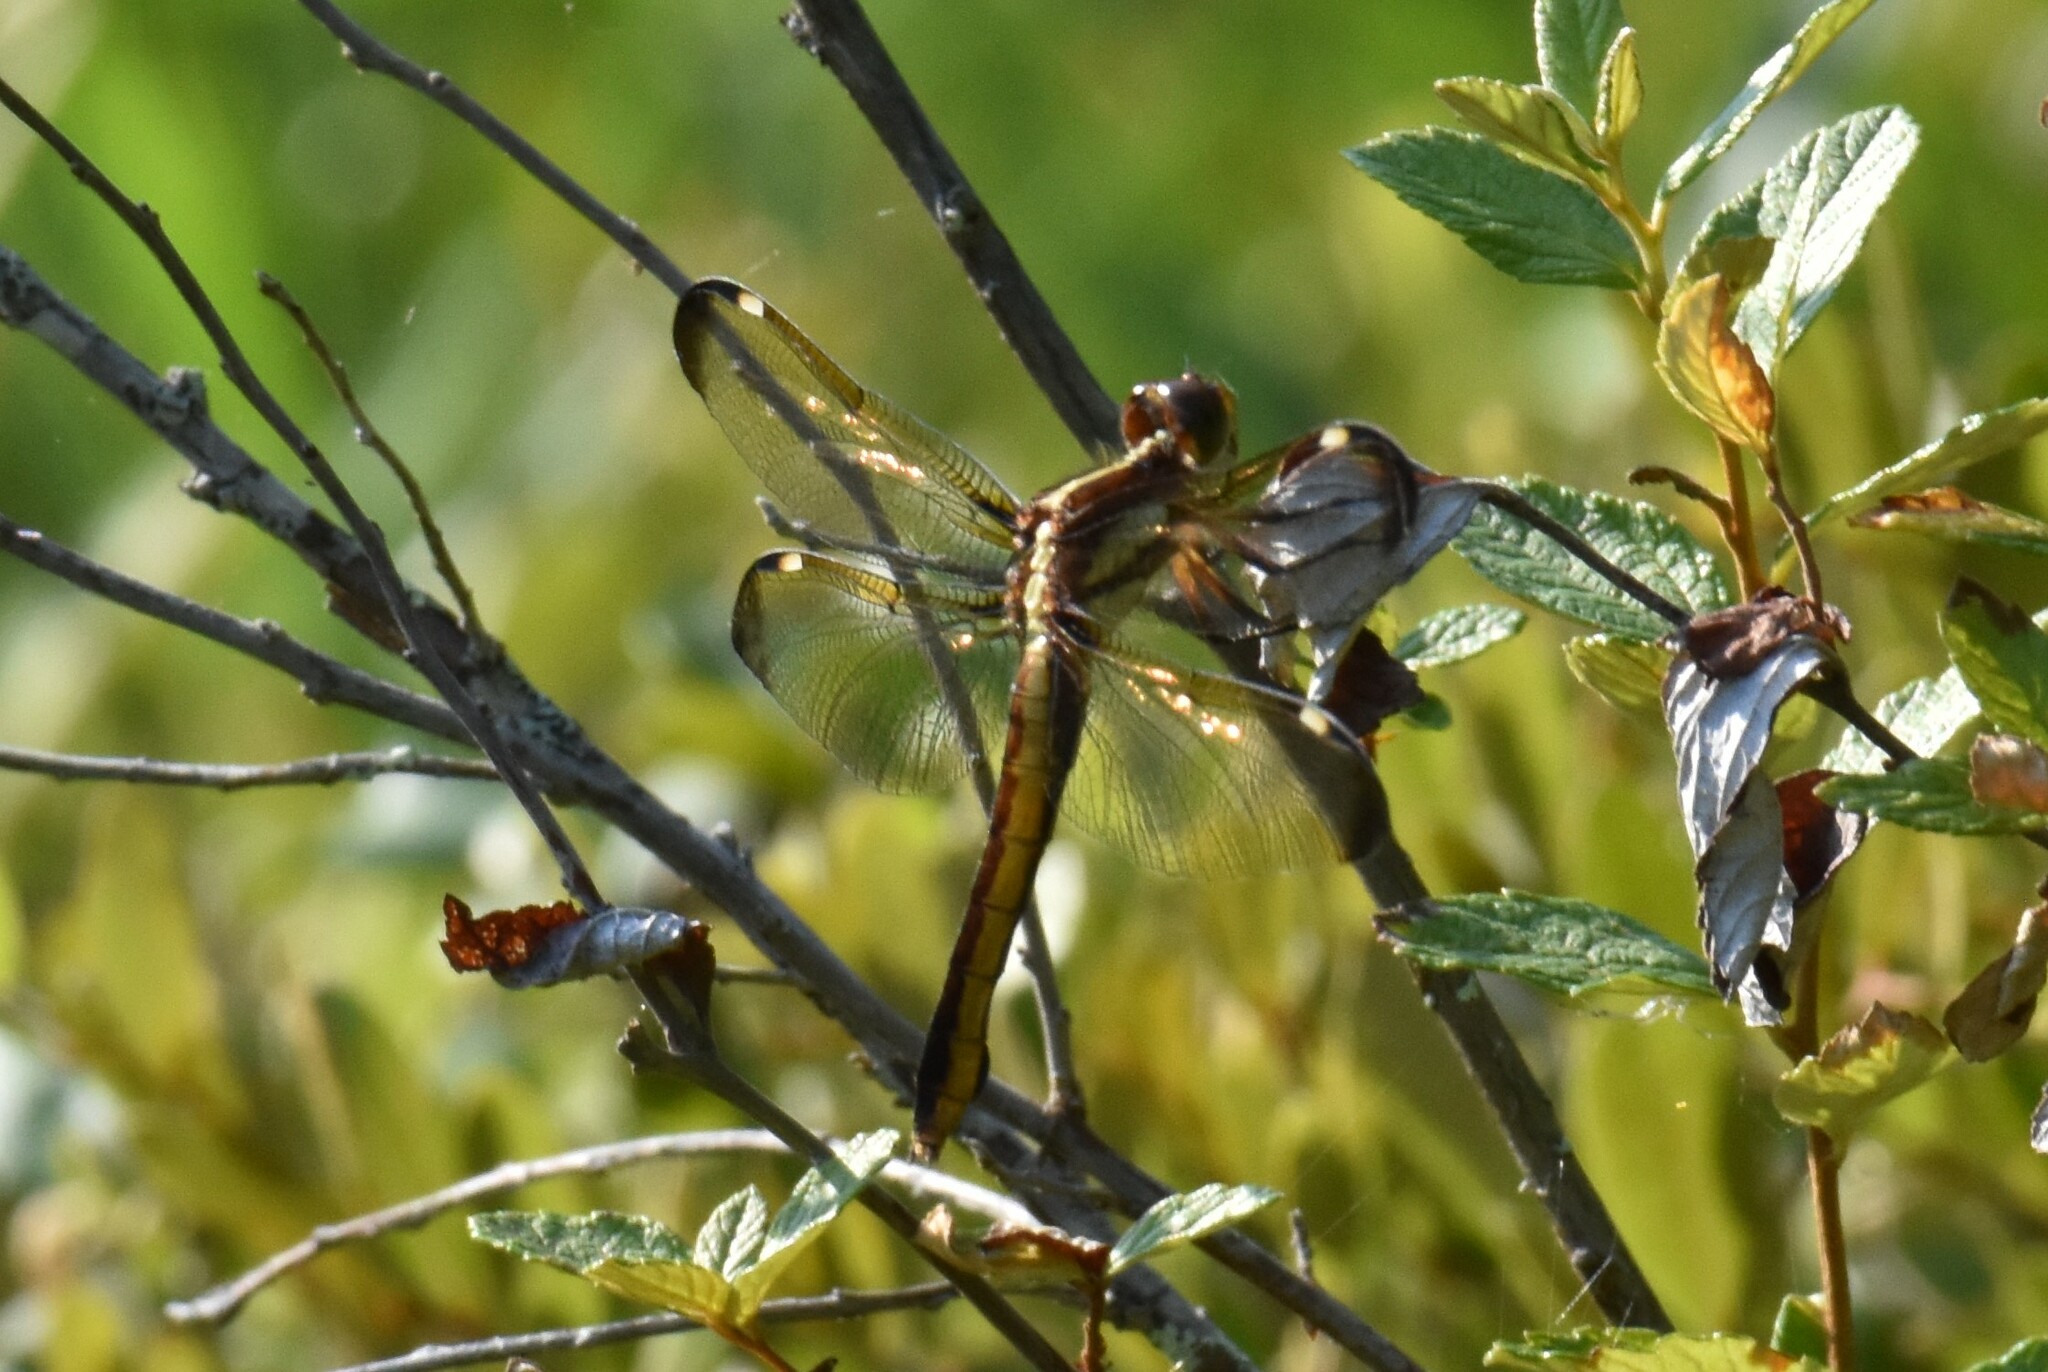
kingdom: Animalia
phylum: Arthropoda
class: Insecta
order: Odonata
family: Libellulidae
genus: Libellula
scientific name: Libellula cyanea
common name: Spangled skimmer
